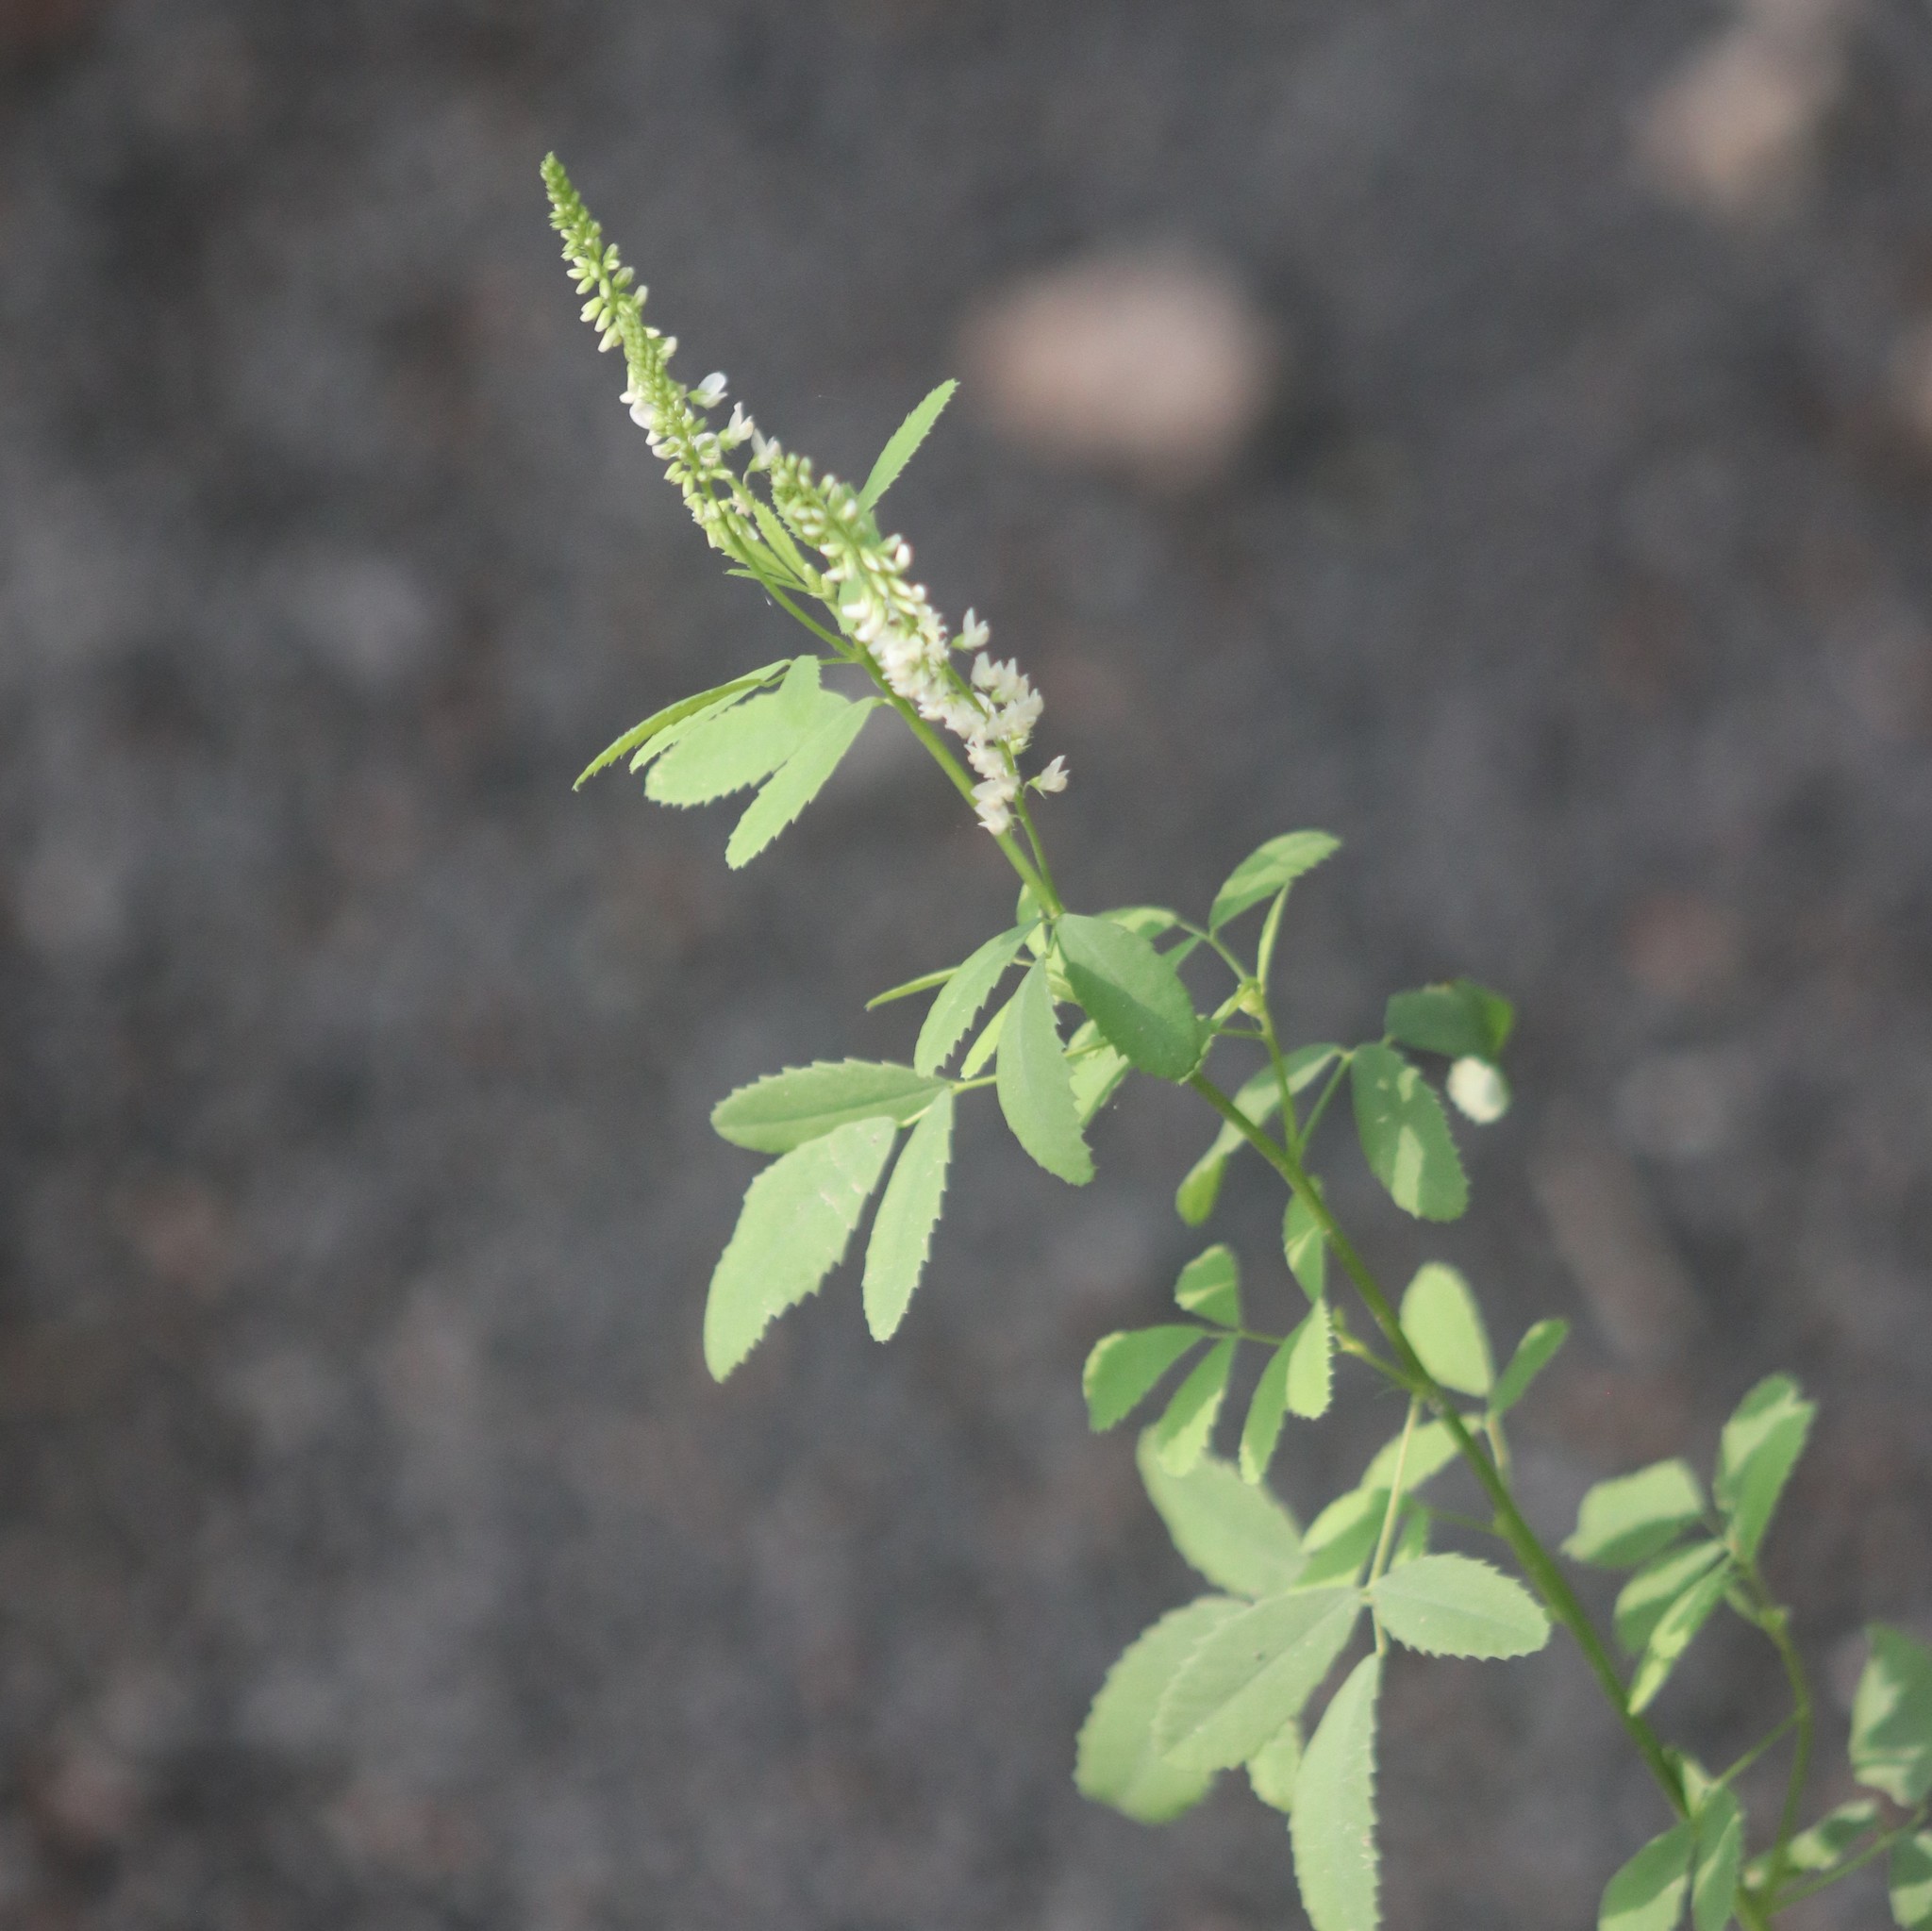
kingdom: Plantae
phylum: Tracheophyta
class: Magnoliopsida
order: Fabales
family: Fabaceae
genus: Melilotus
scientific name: Melilotus albus
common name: White melilot
